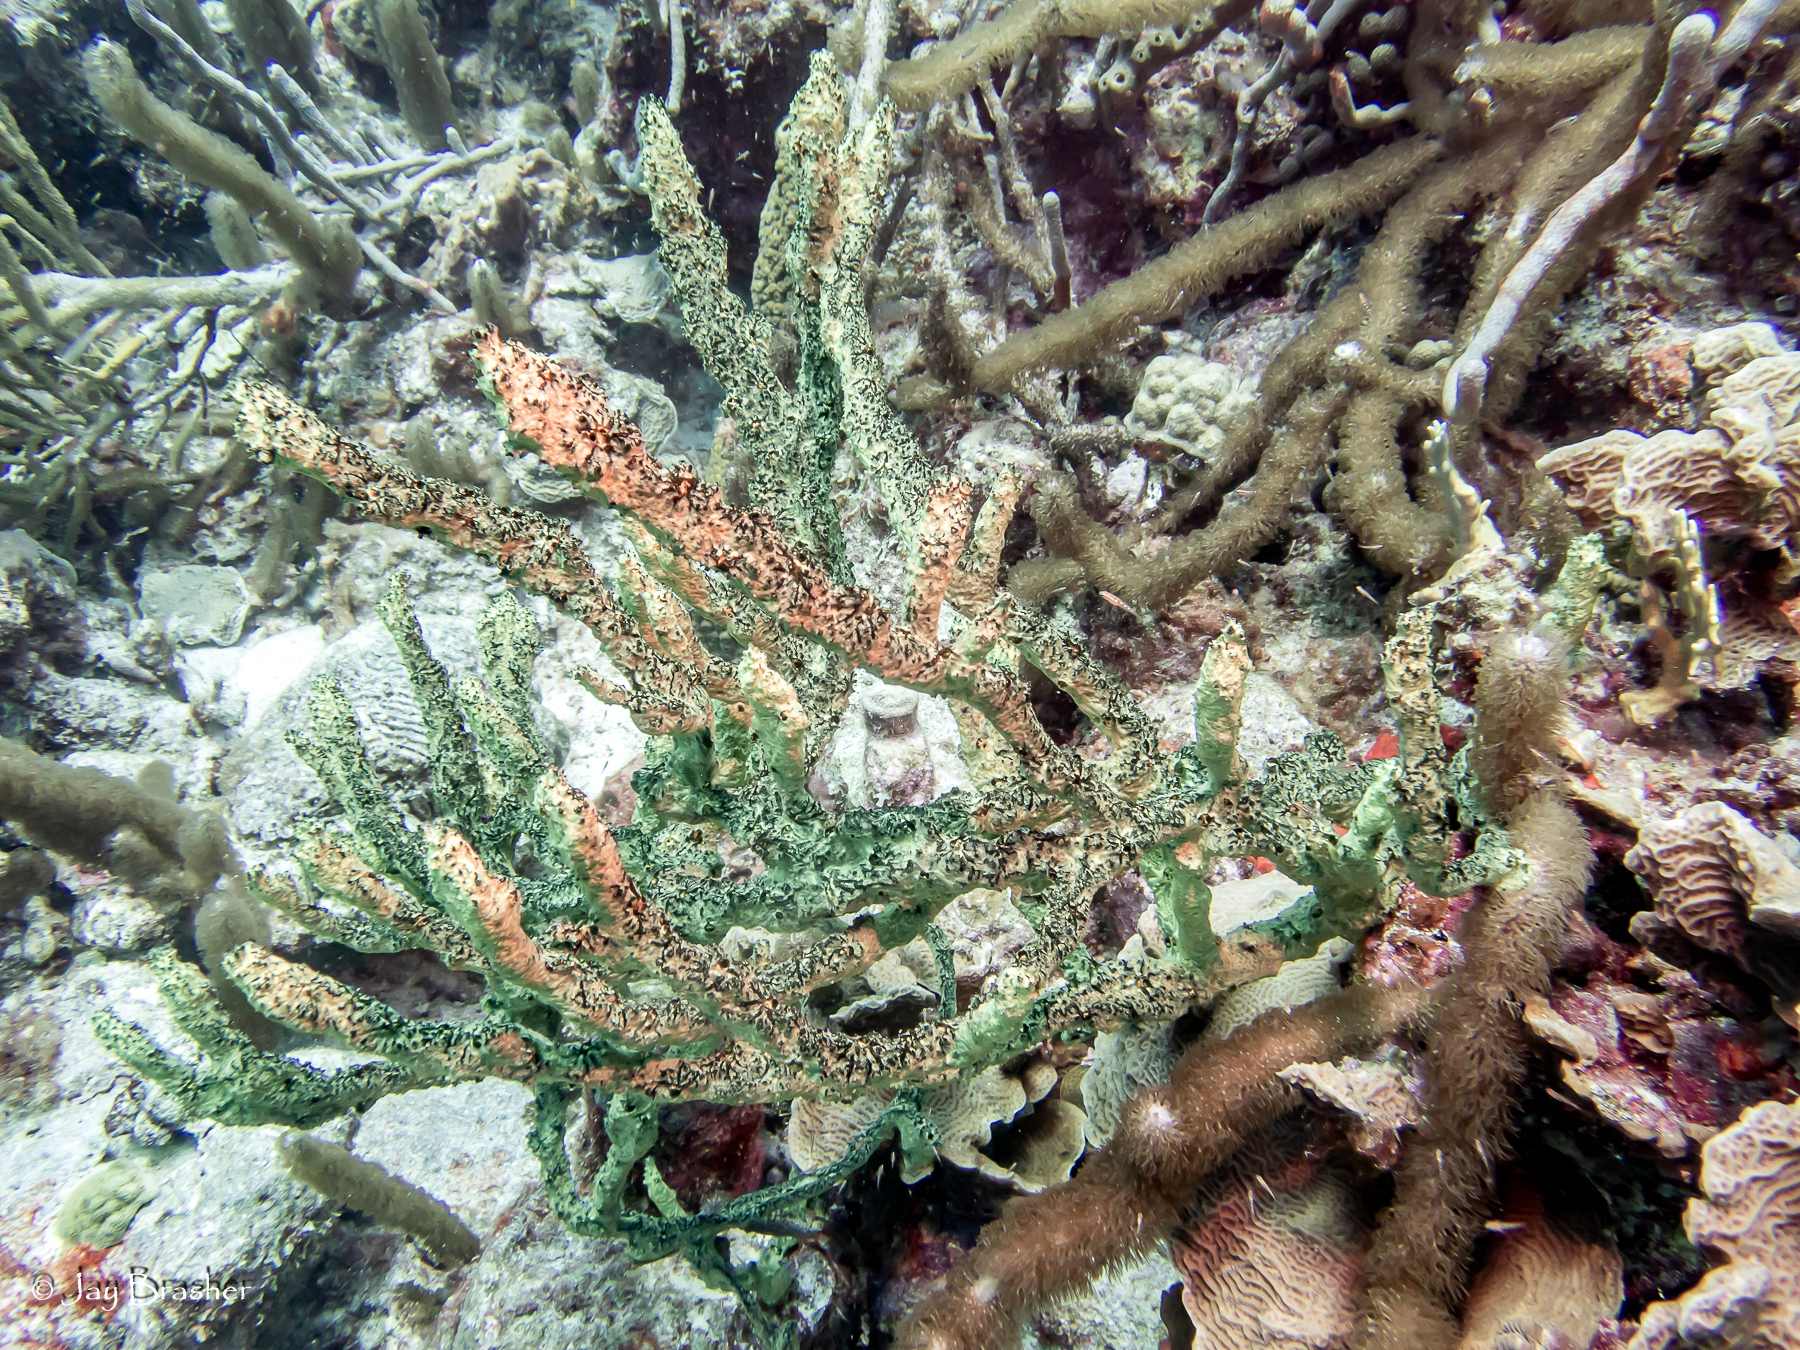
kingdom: Animalia
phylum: Porifera
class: Demospongiae
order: Poecilosclerida
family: Iotrochotidae
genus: Iotrochota
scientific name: Iotrochota birotulata
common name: Purple bleeding sponge
